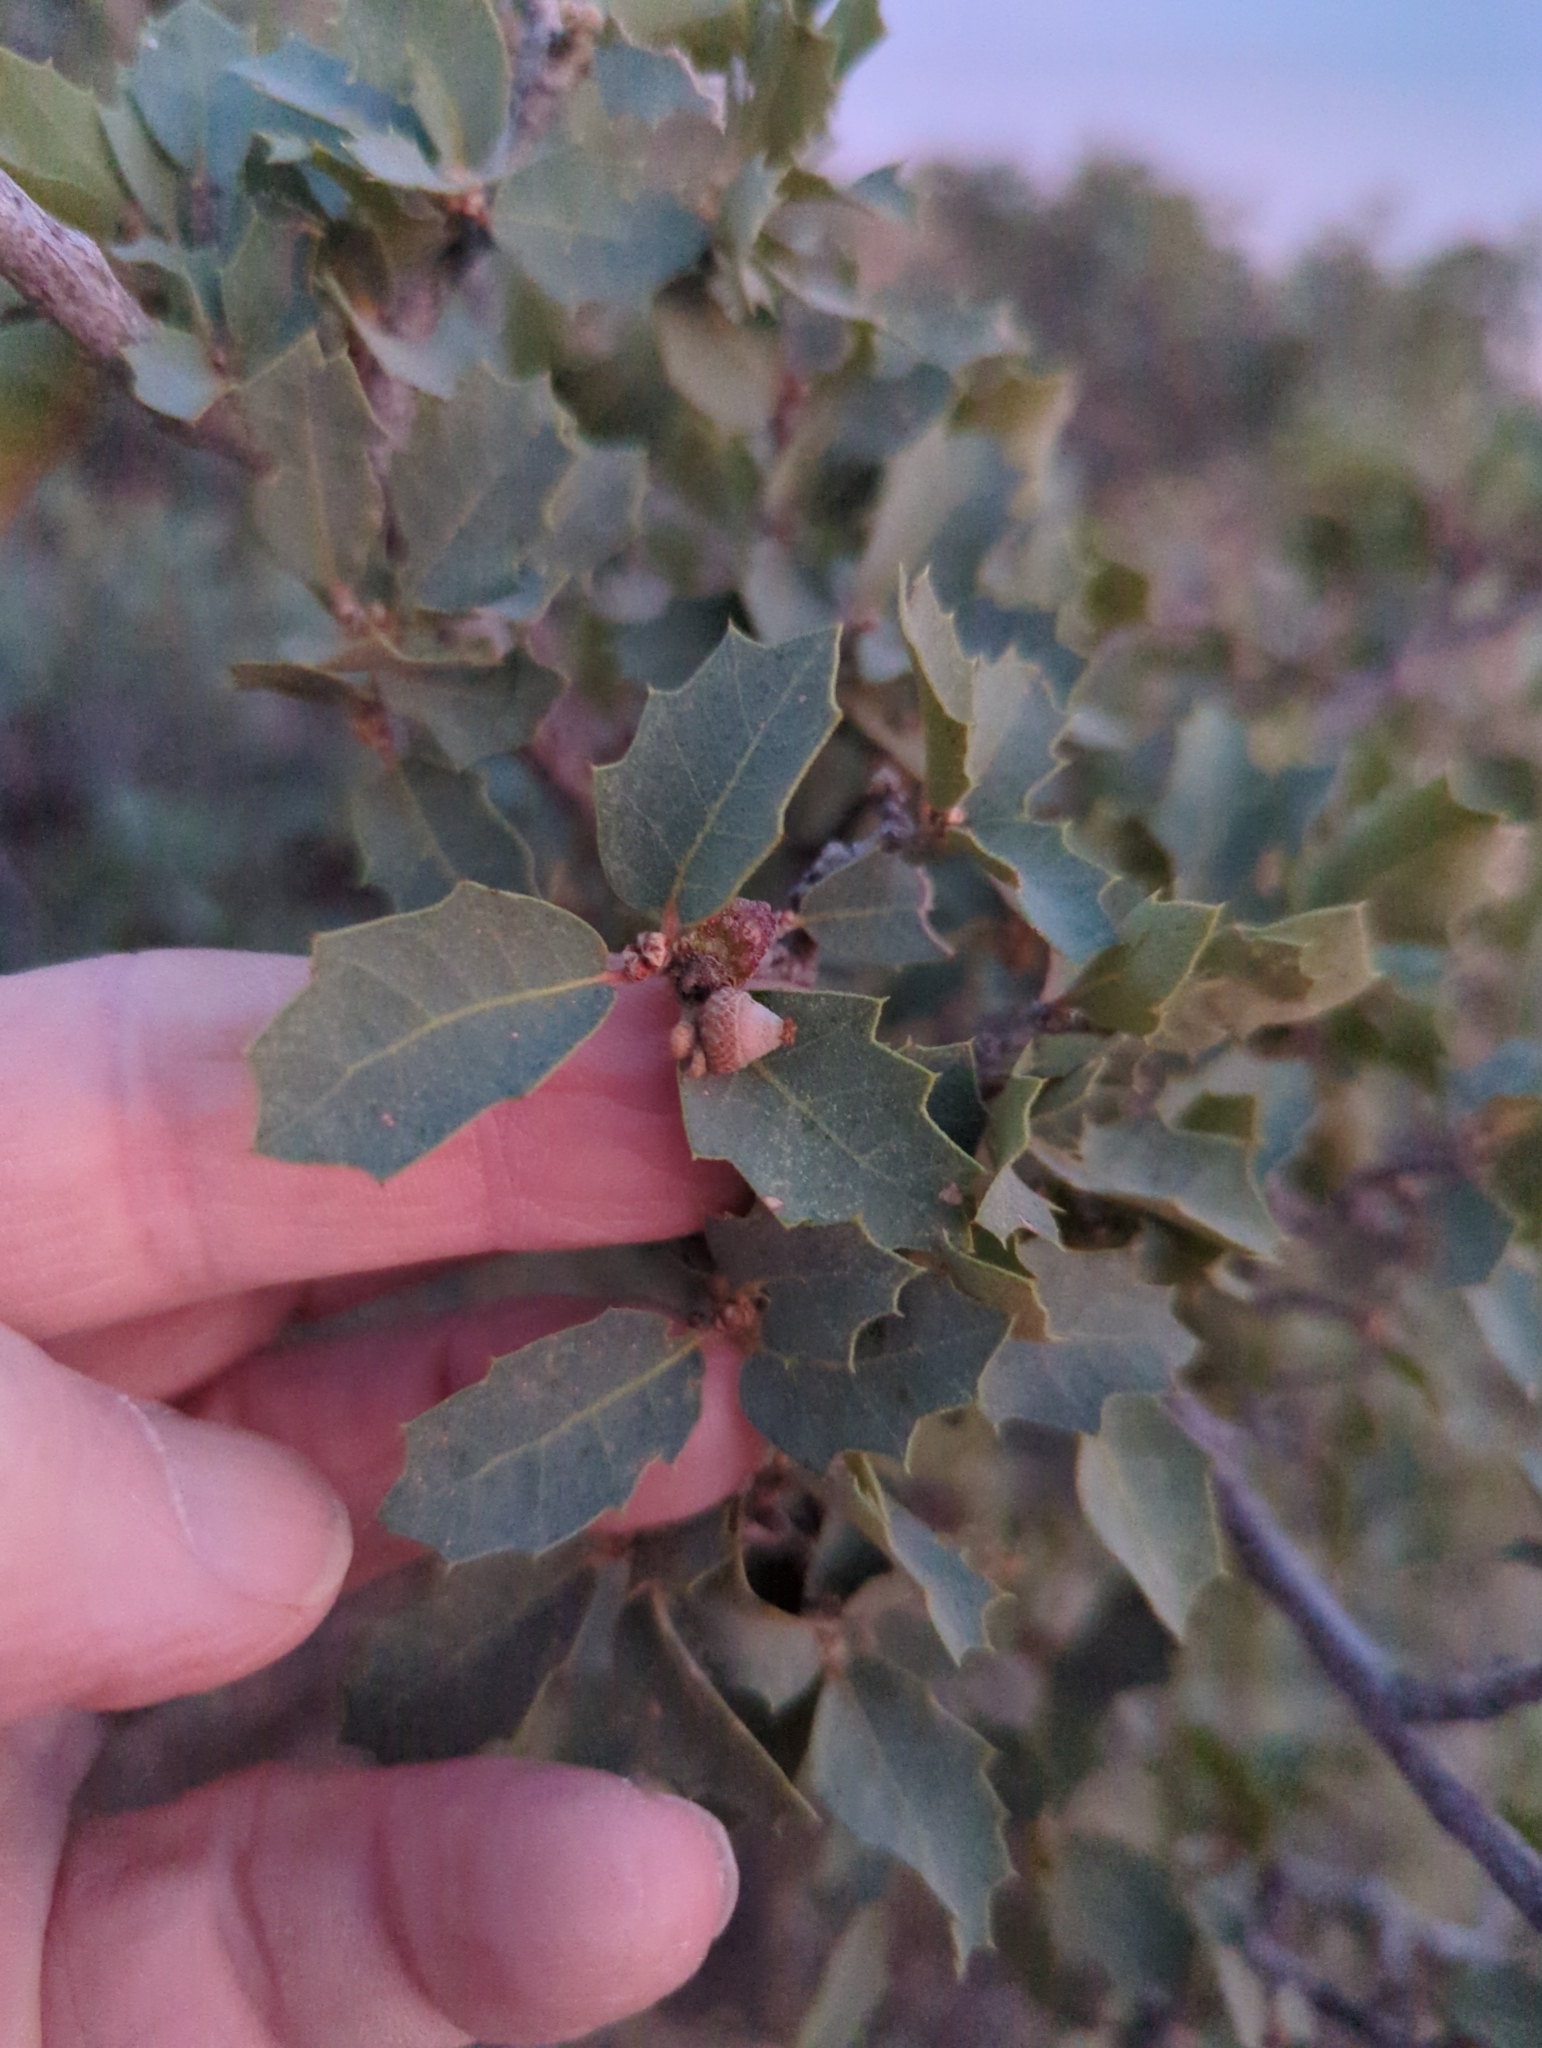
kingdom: Plantae
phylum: Tracheophyta
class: Magnoliopsida
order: Fagales
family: Fagaceae
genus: Quercus
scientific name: Quercus turbinella
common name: Sonoran scrub oak
